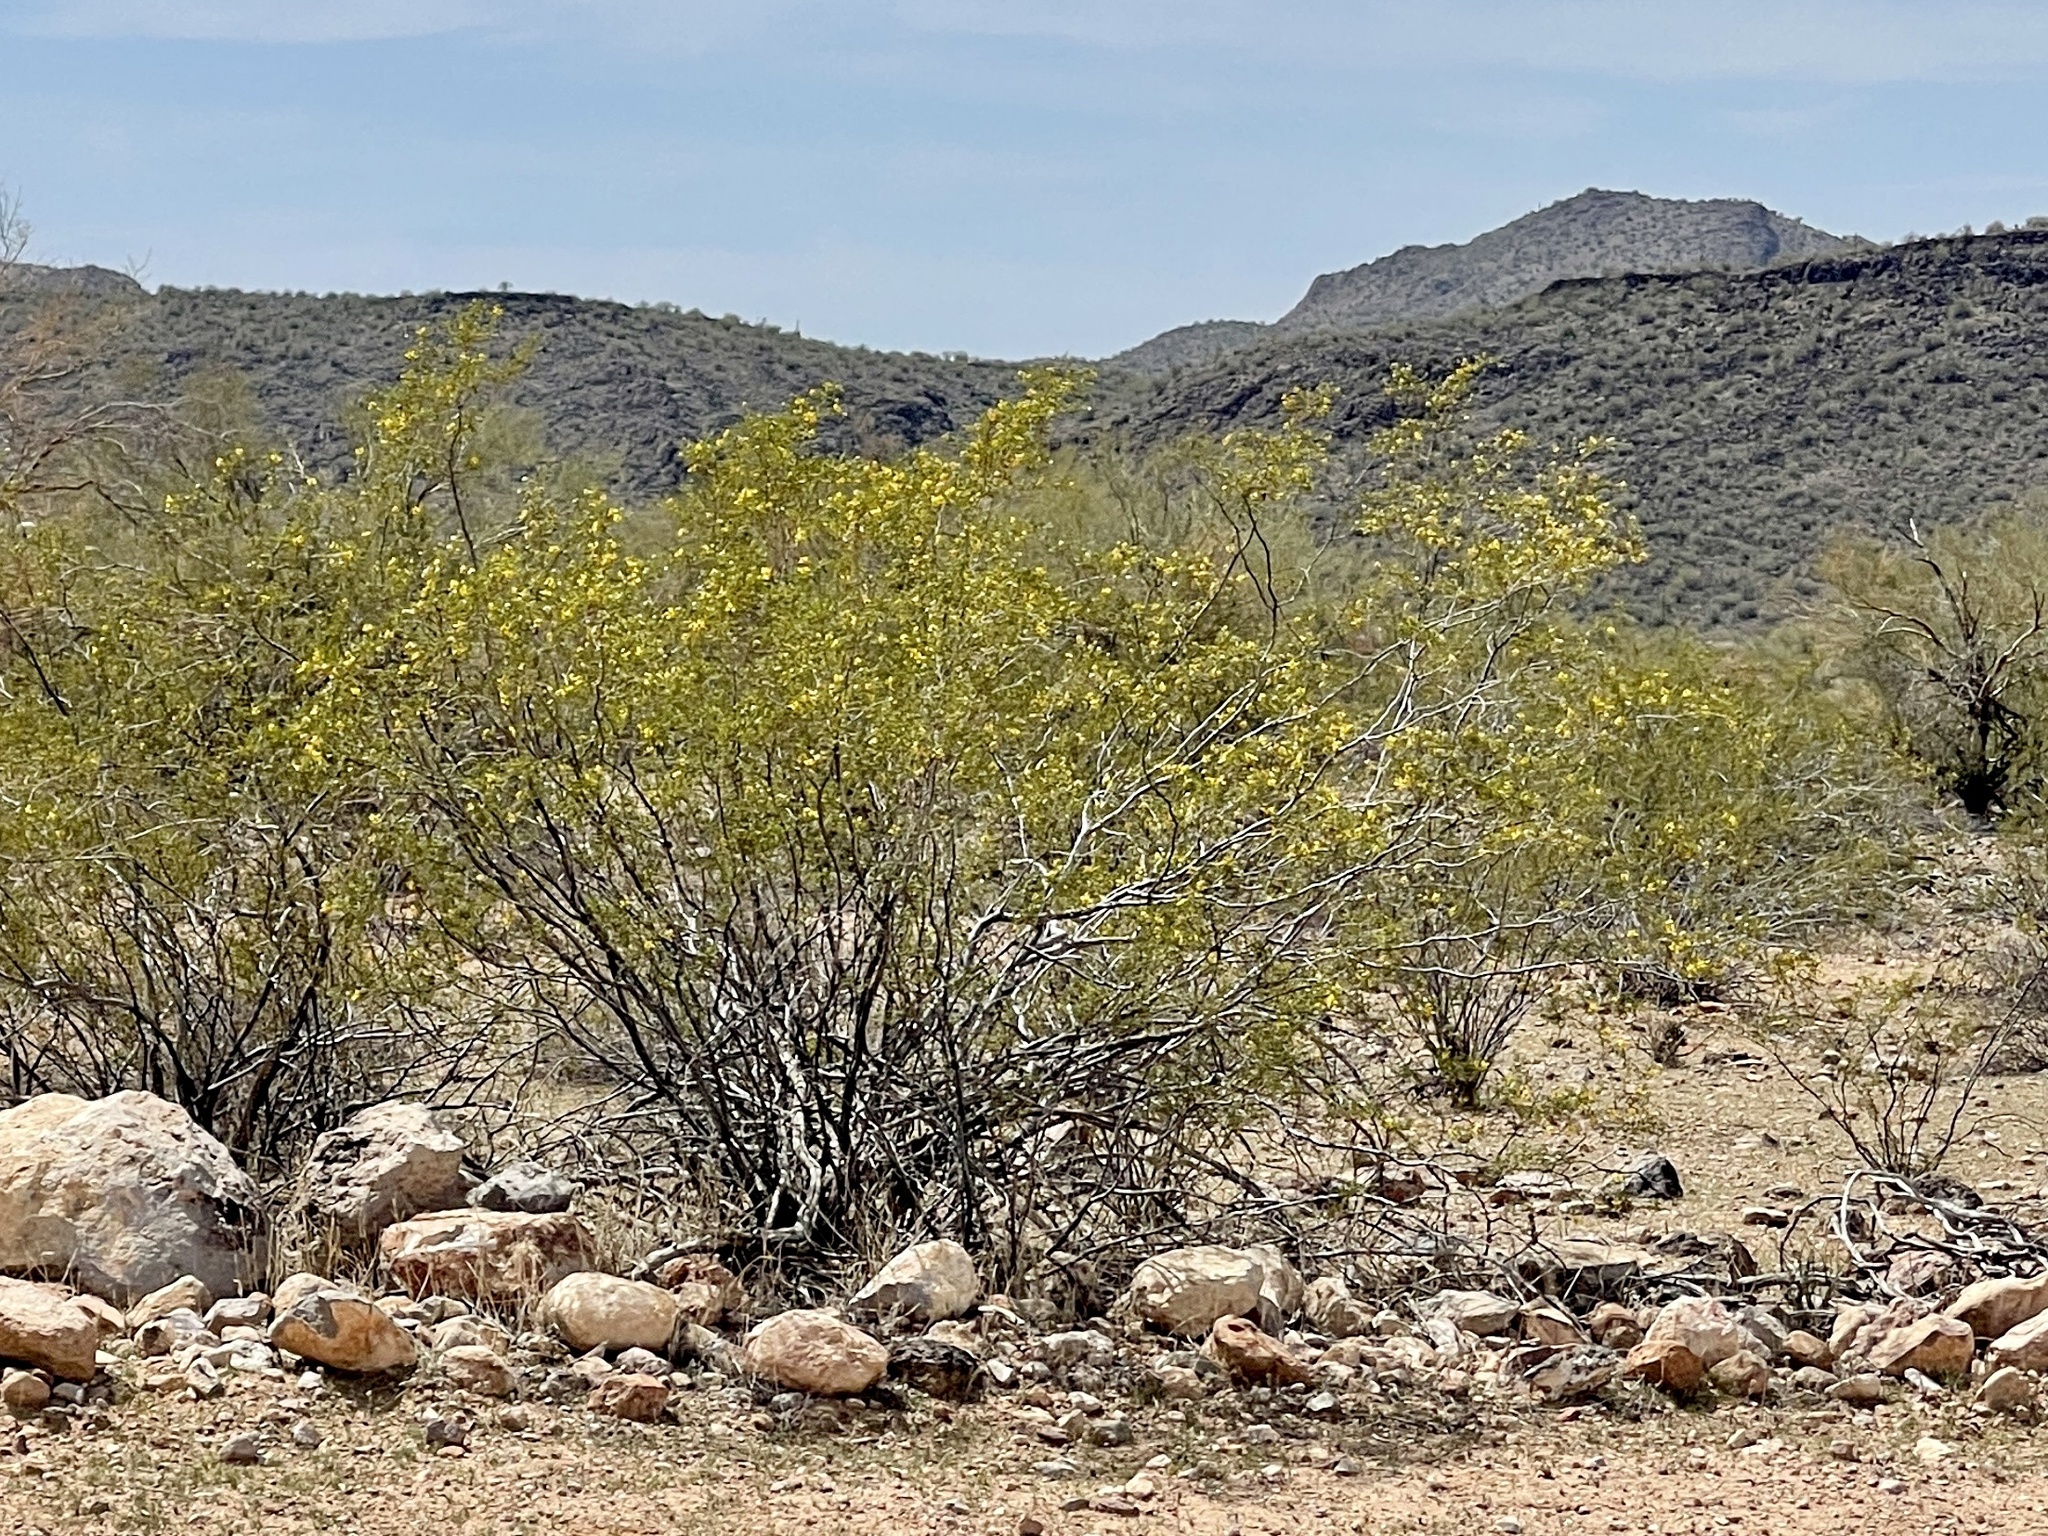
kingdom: Plantae
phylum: Tracheophyta
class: Magnoliopsida
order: Zygophyllales
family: Zygophyllaceae
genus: Larrea
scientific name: Larrea tridentata
